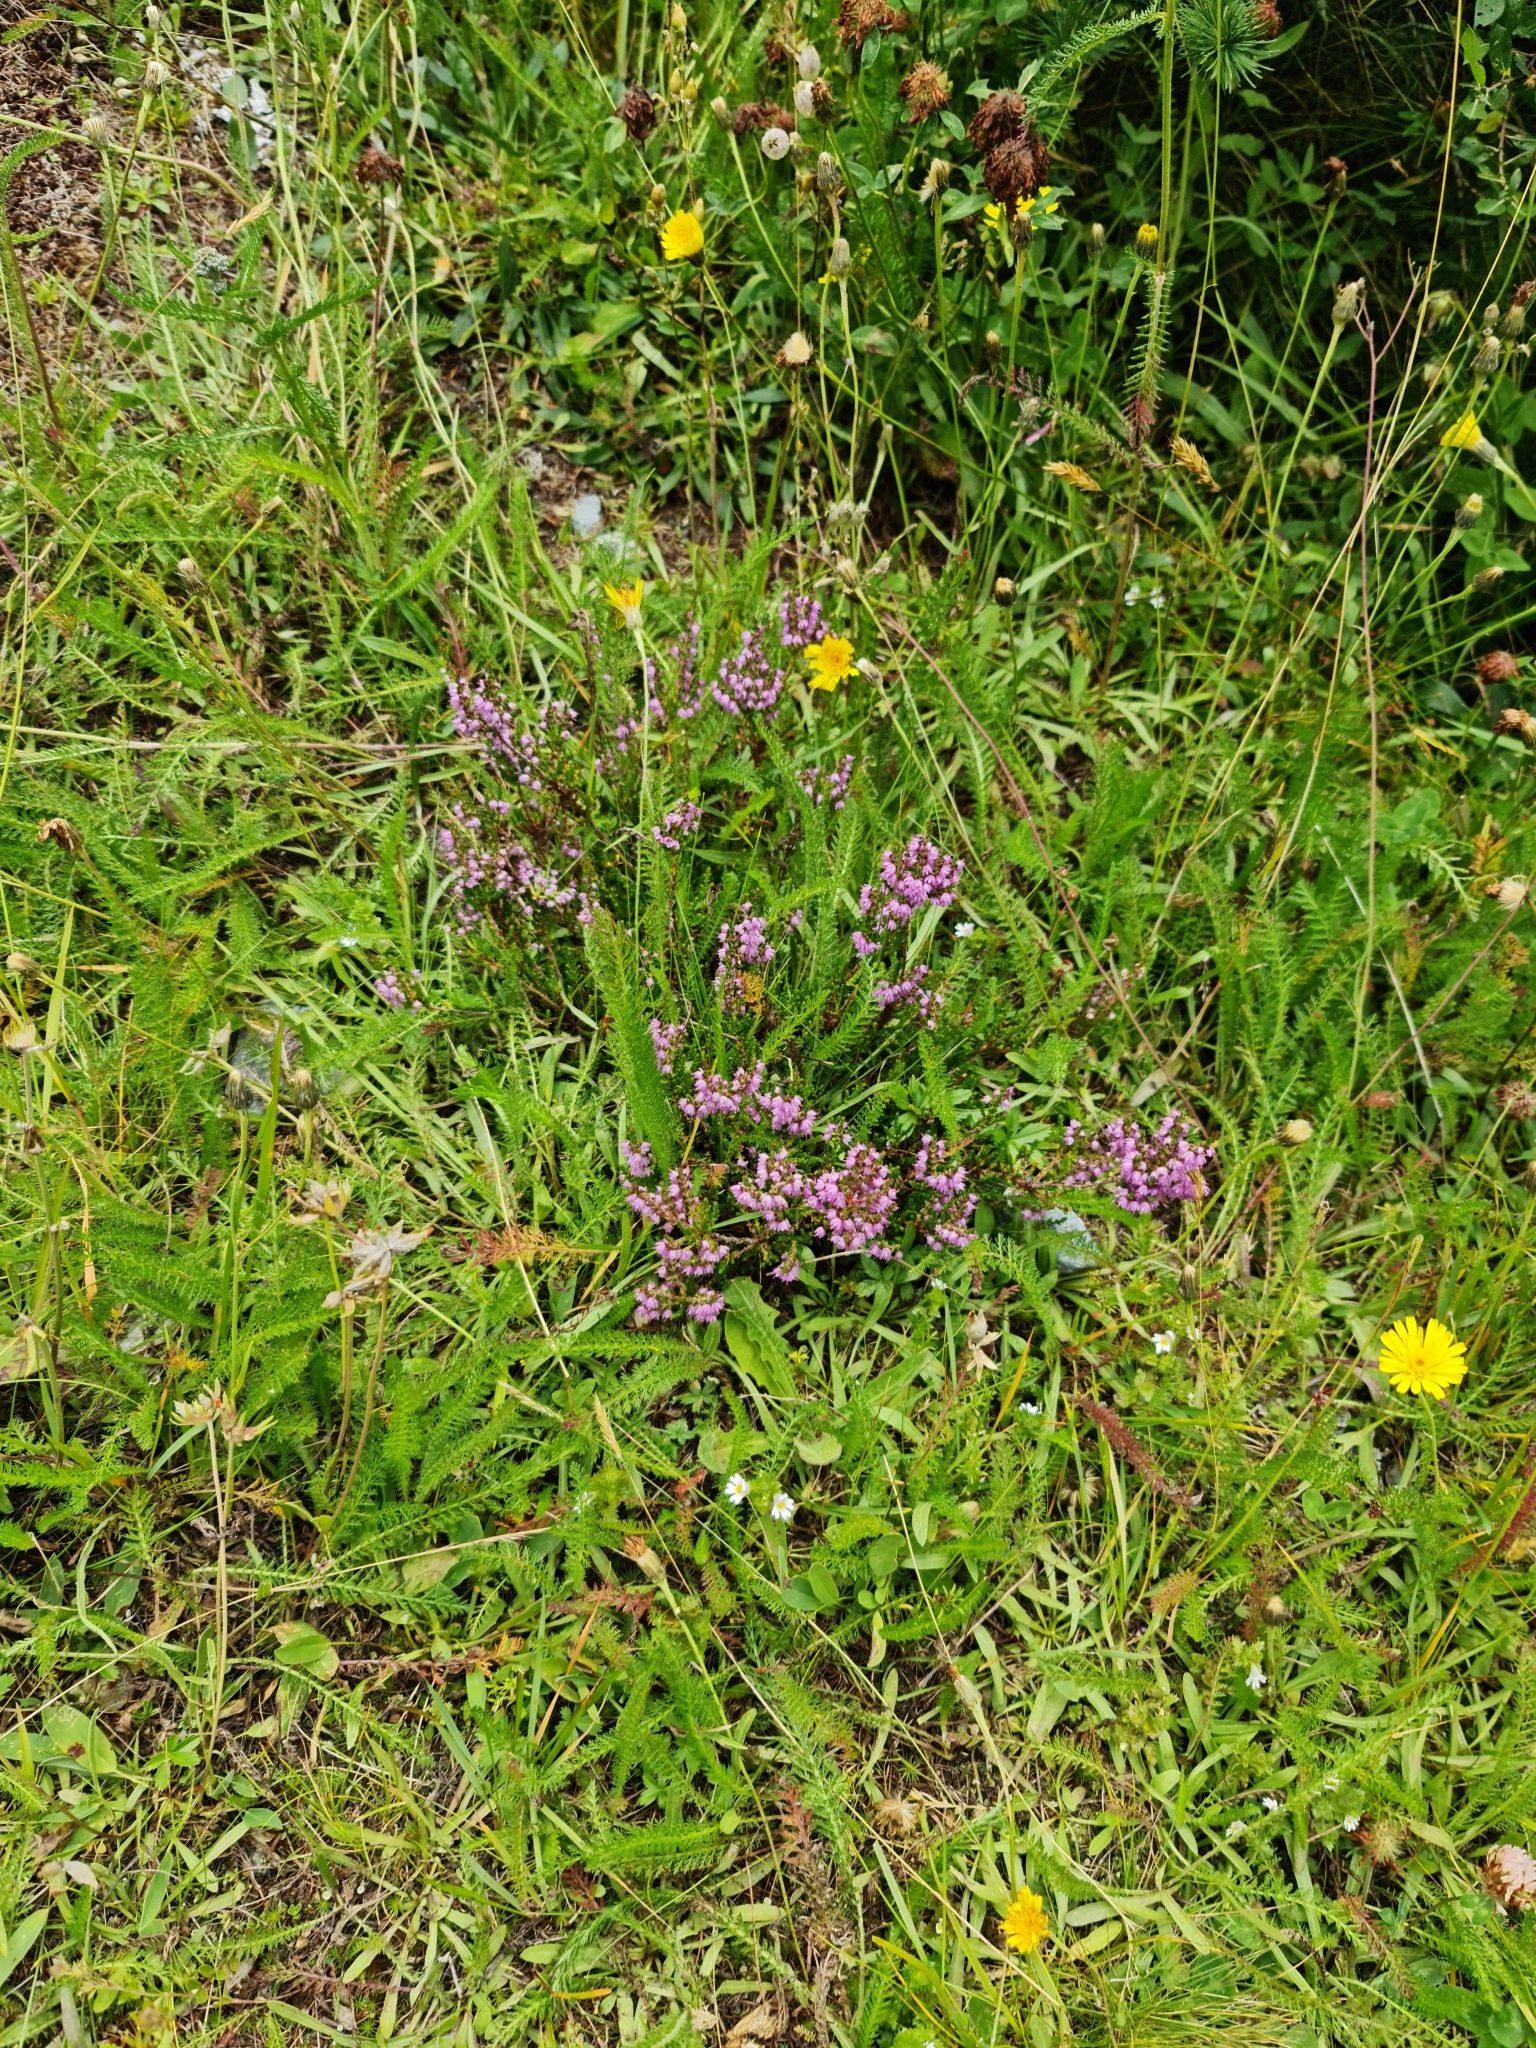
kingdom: Plantae
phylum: Tracheophyta
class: Magnoliopsida
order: Ericales
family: Ericaceae
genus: Calluna
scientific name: Calluna vulgaris
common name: Heather
